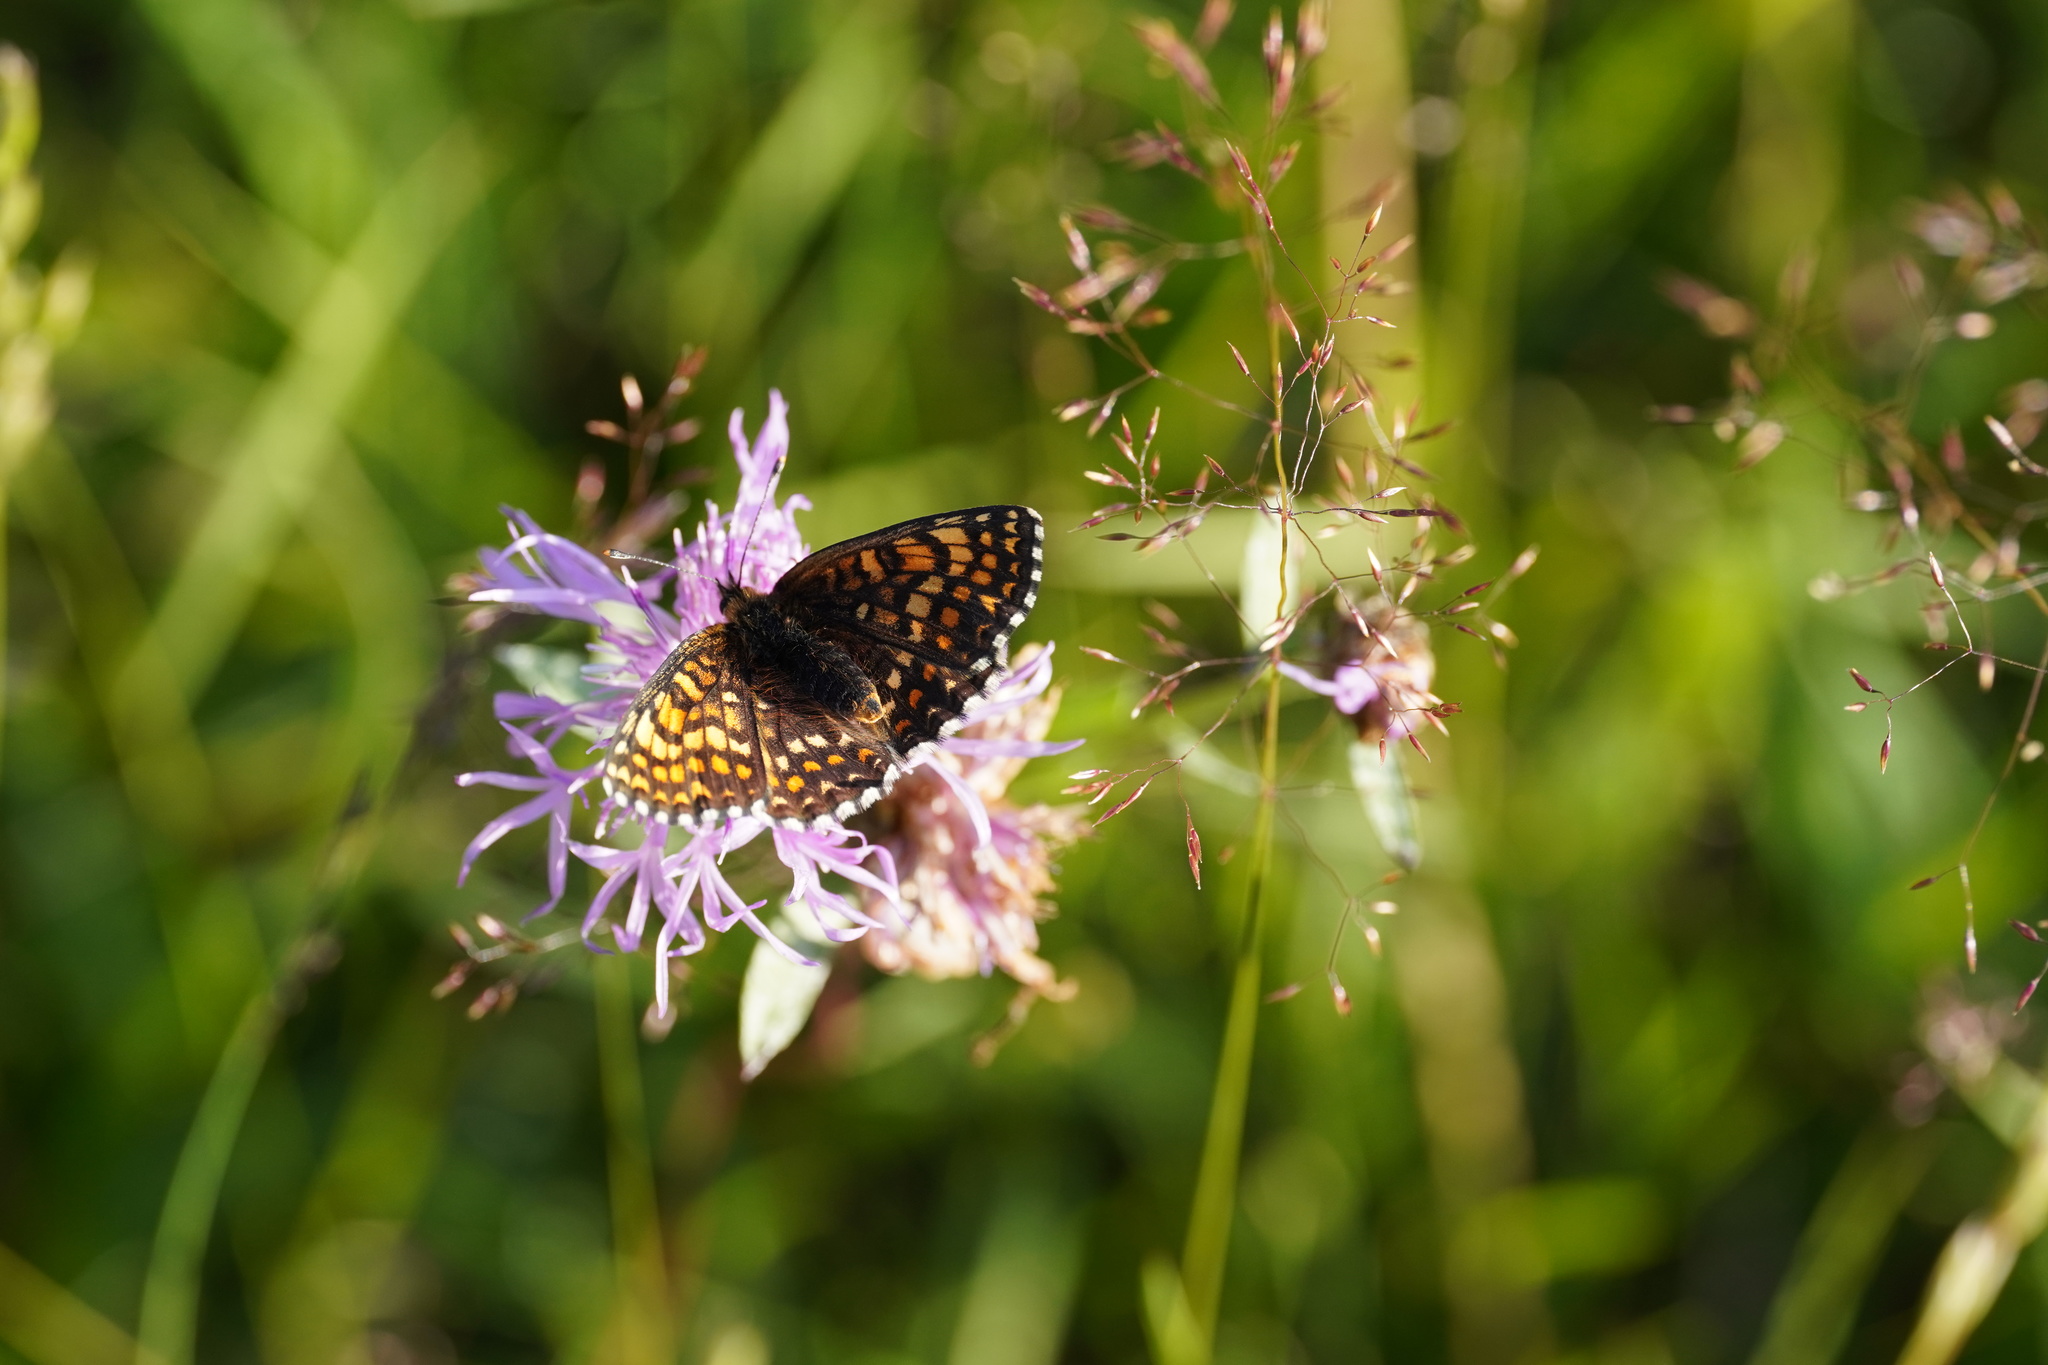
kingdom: Animalia
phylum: Arthropoda
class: Insecta
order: Lepidoptera
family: Nymphalidae
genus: Melitaea
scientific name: Melitaea athalia
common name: Heath fritillary
